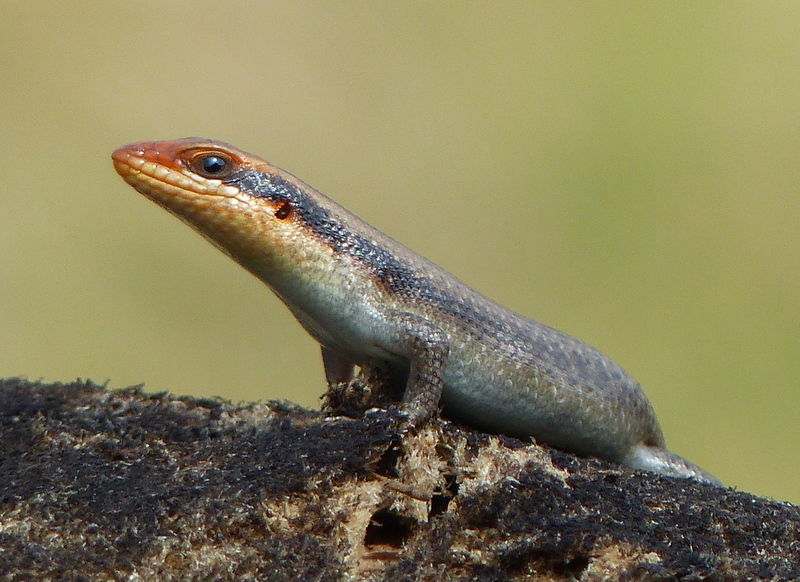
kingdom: Animalia
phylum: Chordata
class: Squamata
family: Scincidae
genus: Trachylepis
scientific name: Trachylepis wahlbergii
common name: Wahlberg’s striped skink
